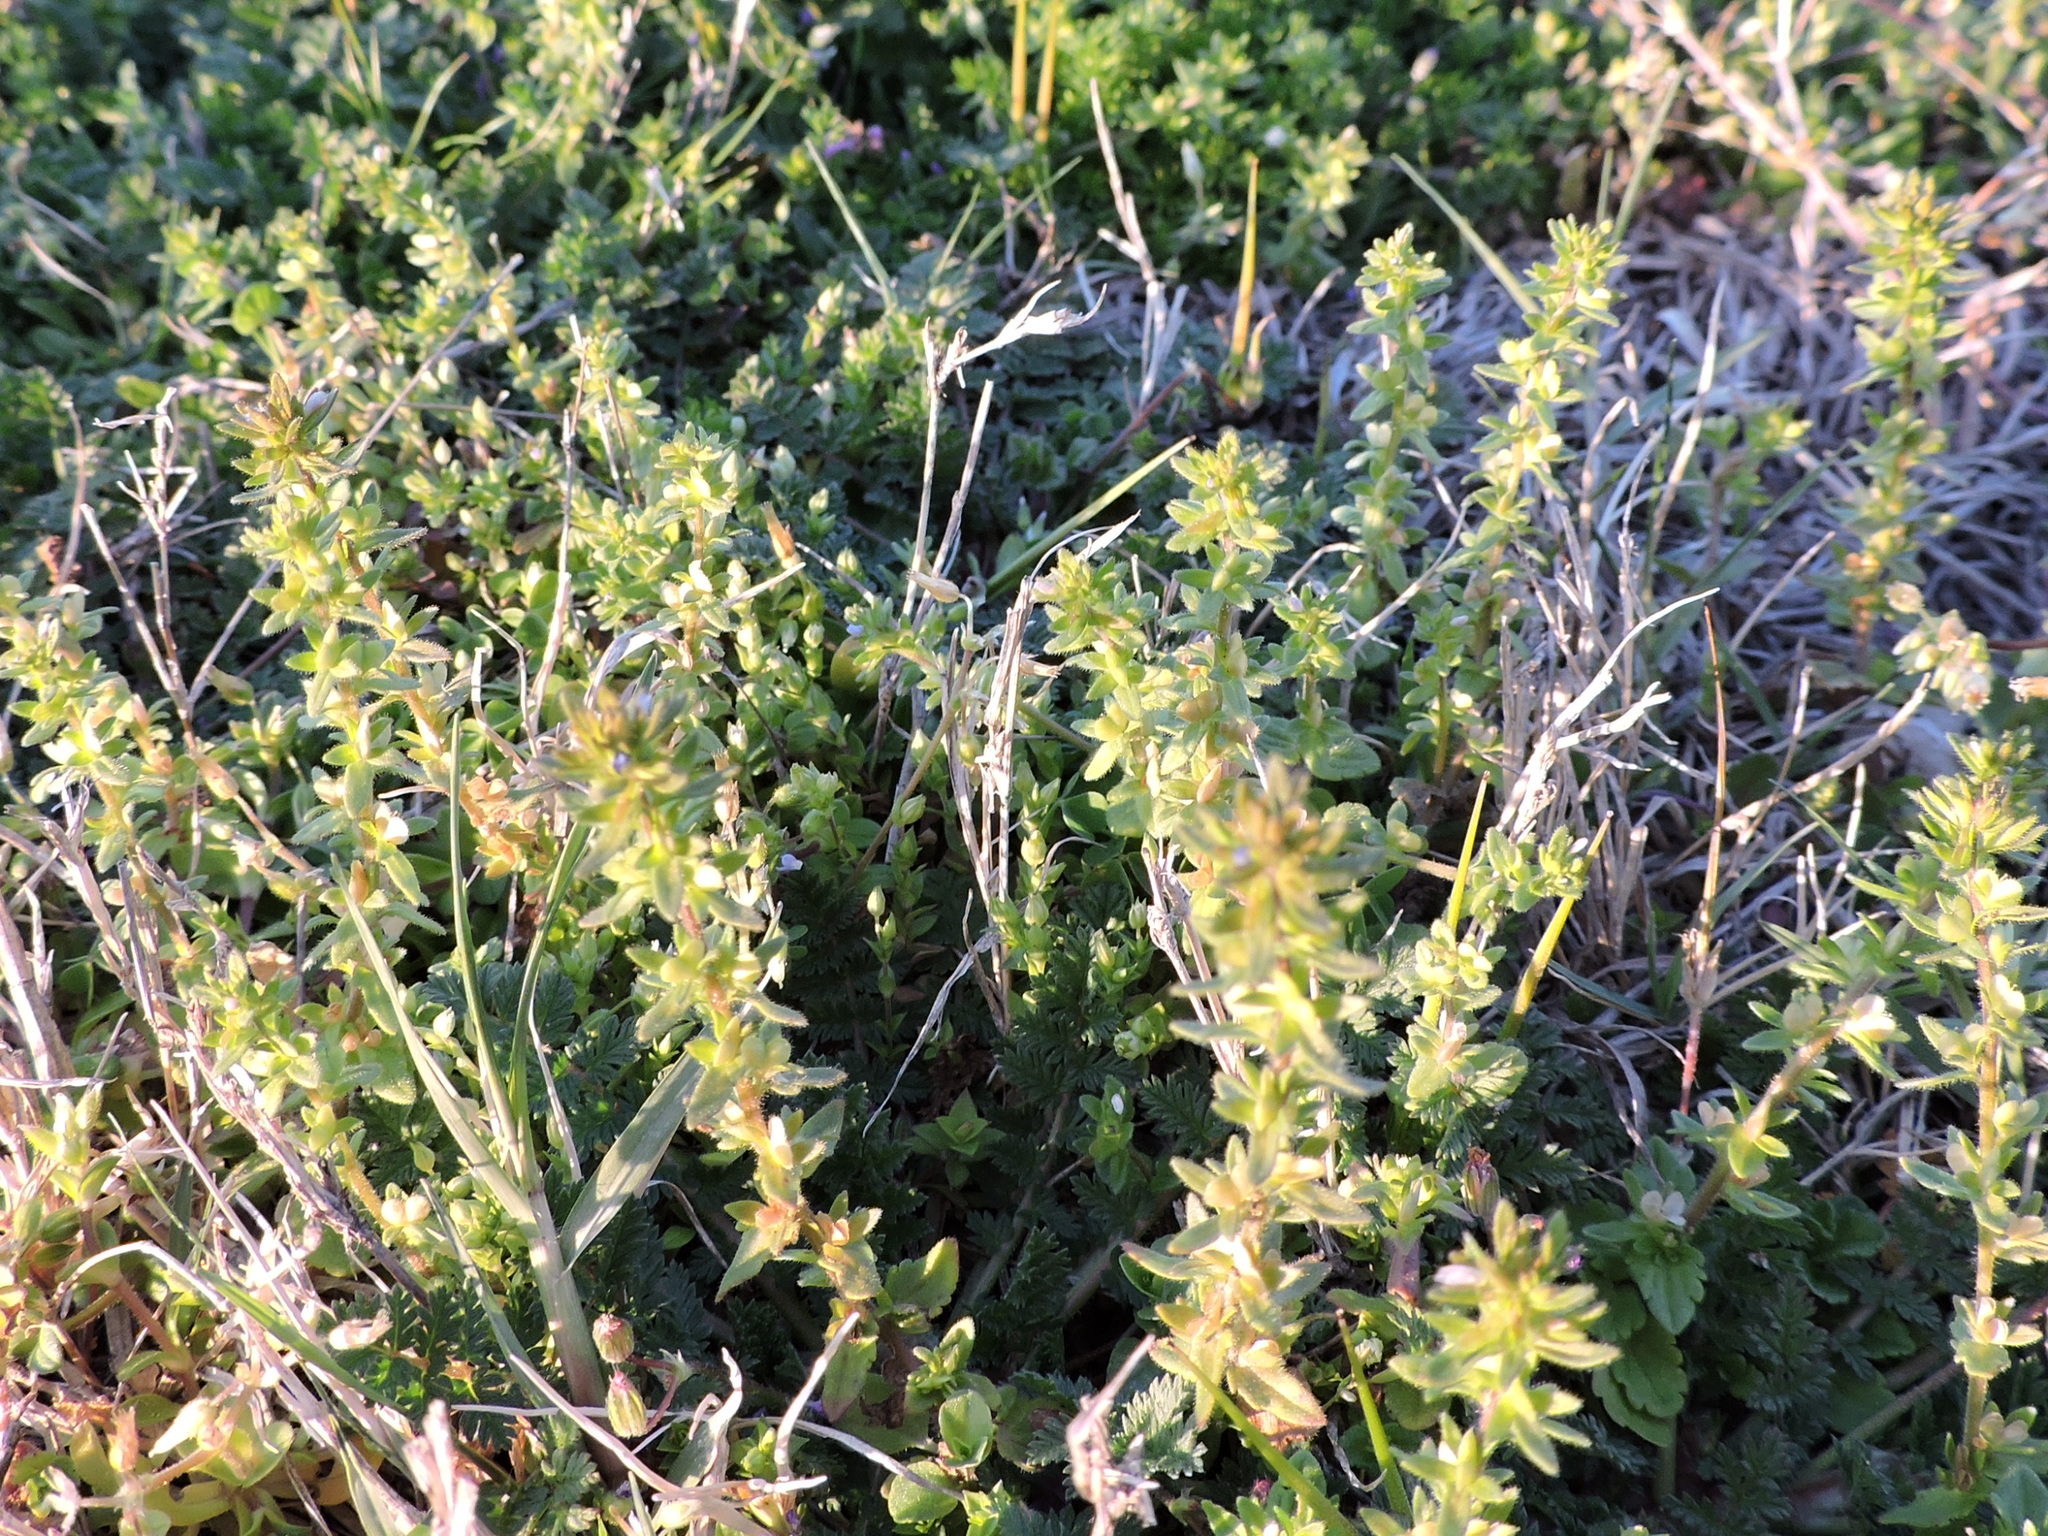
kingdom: Plantae
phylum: Tracheophyta
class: Magnoliopsida
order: Lamiales
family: Plantaginaceae
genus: Veronica
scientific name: Veronica arvensis
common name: Corn speedwell
